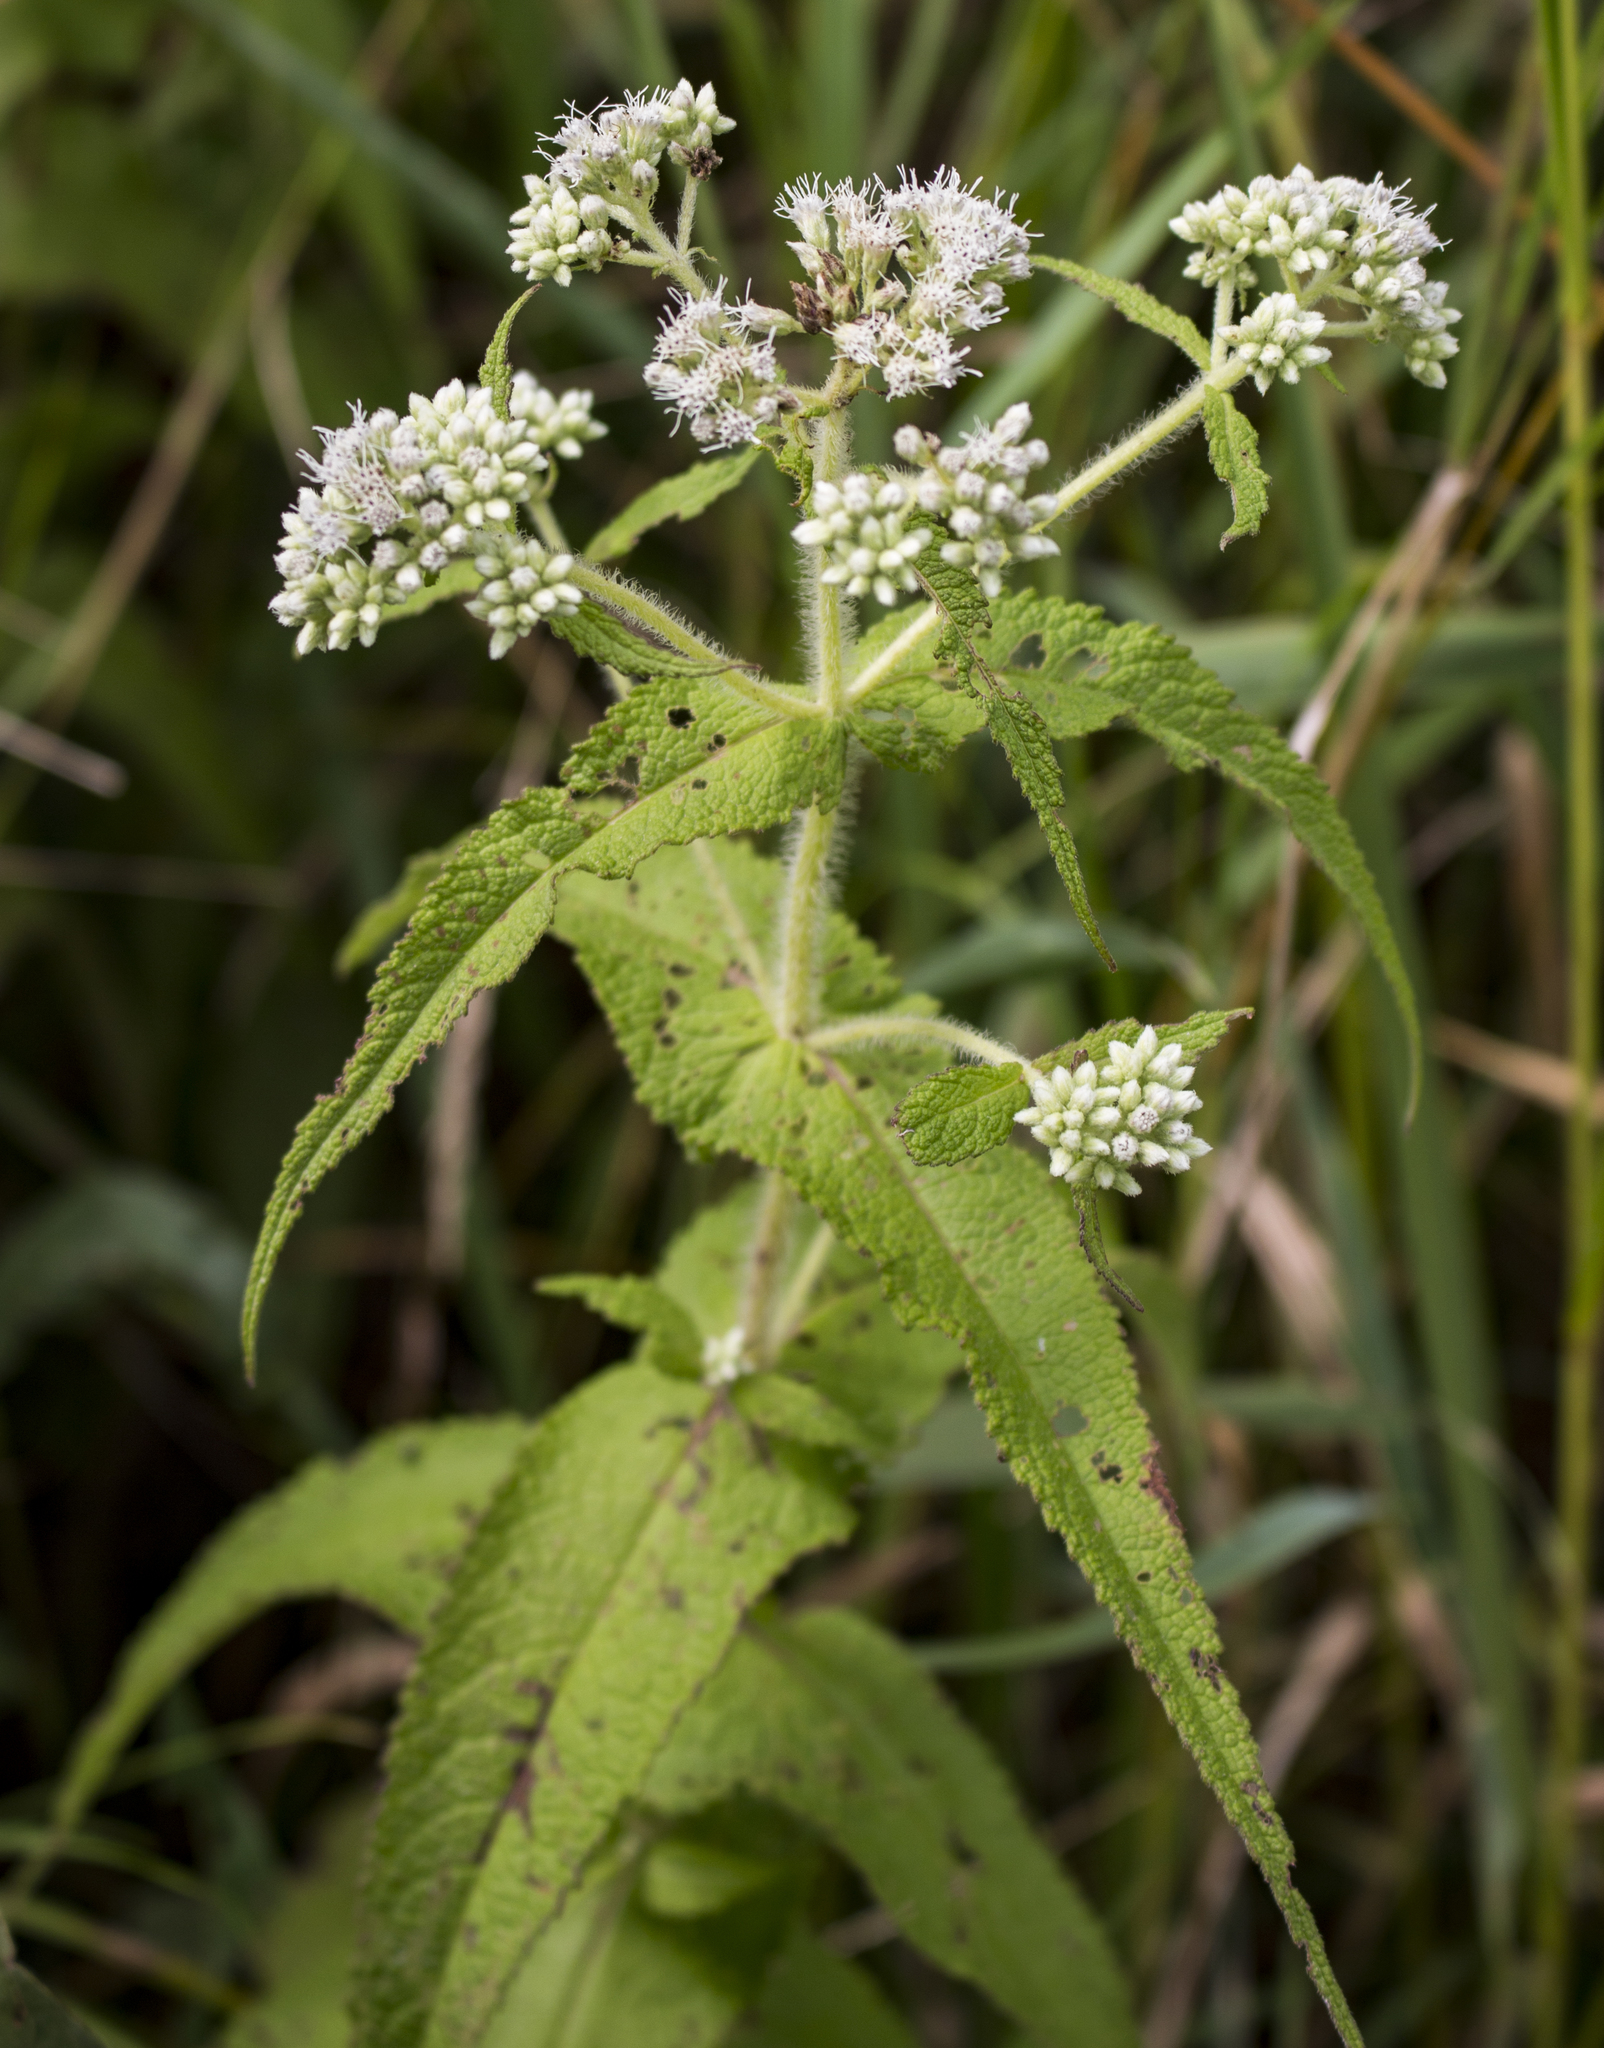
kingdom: Plantae
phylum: Tracheophyta
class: Magnoliopsida
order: Asterales
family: Asteraceae
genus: Eupatorium
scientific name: Eupatorium perfoliatum
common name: Boneset
